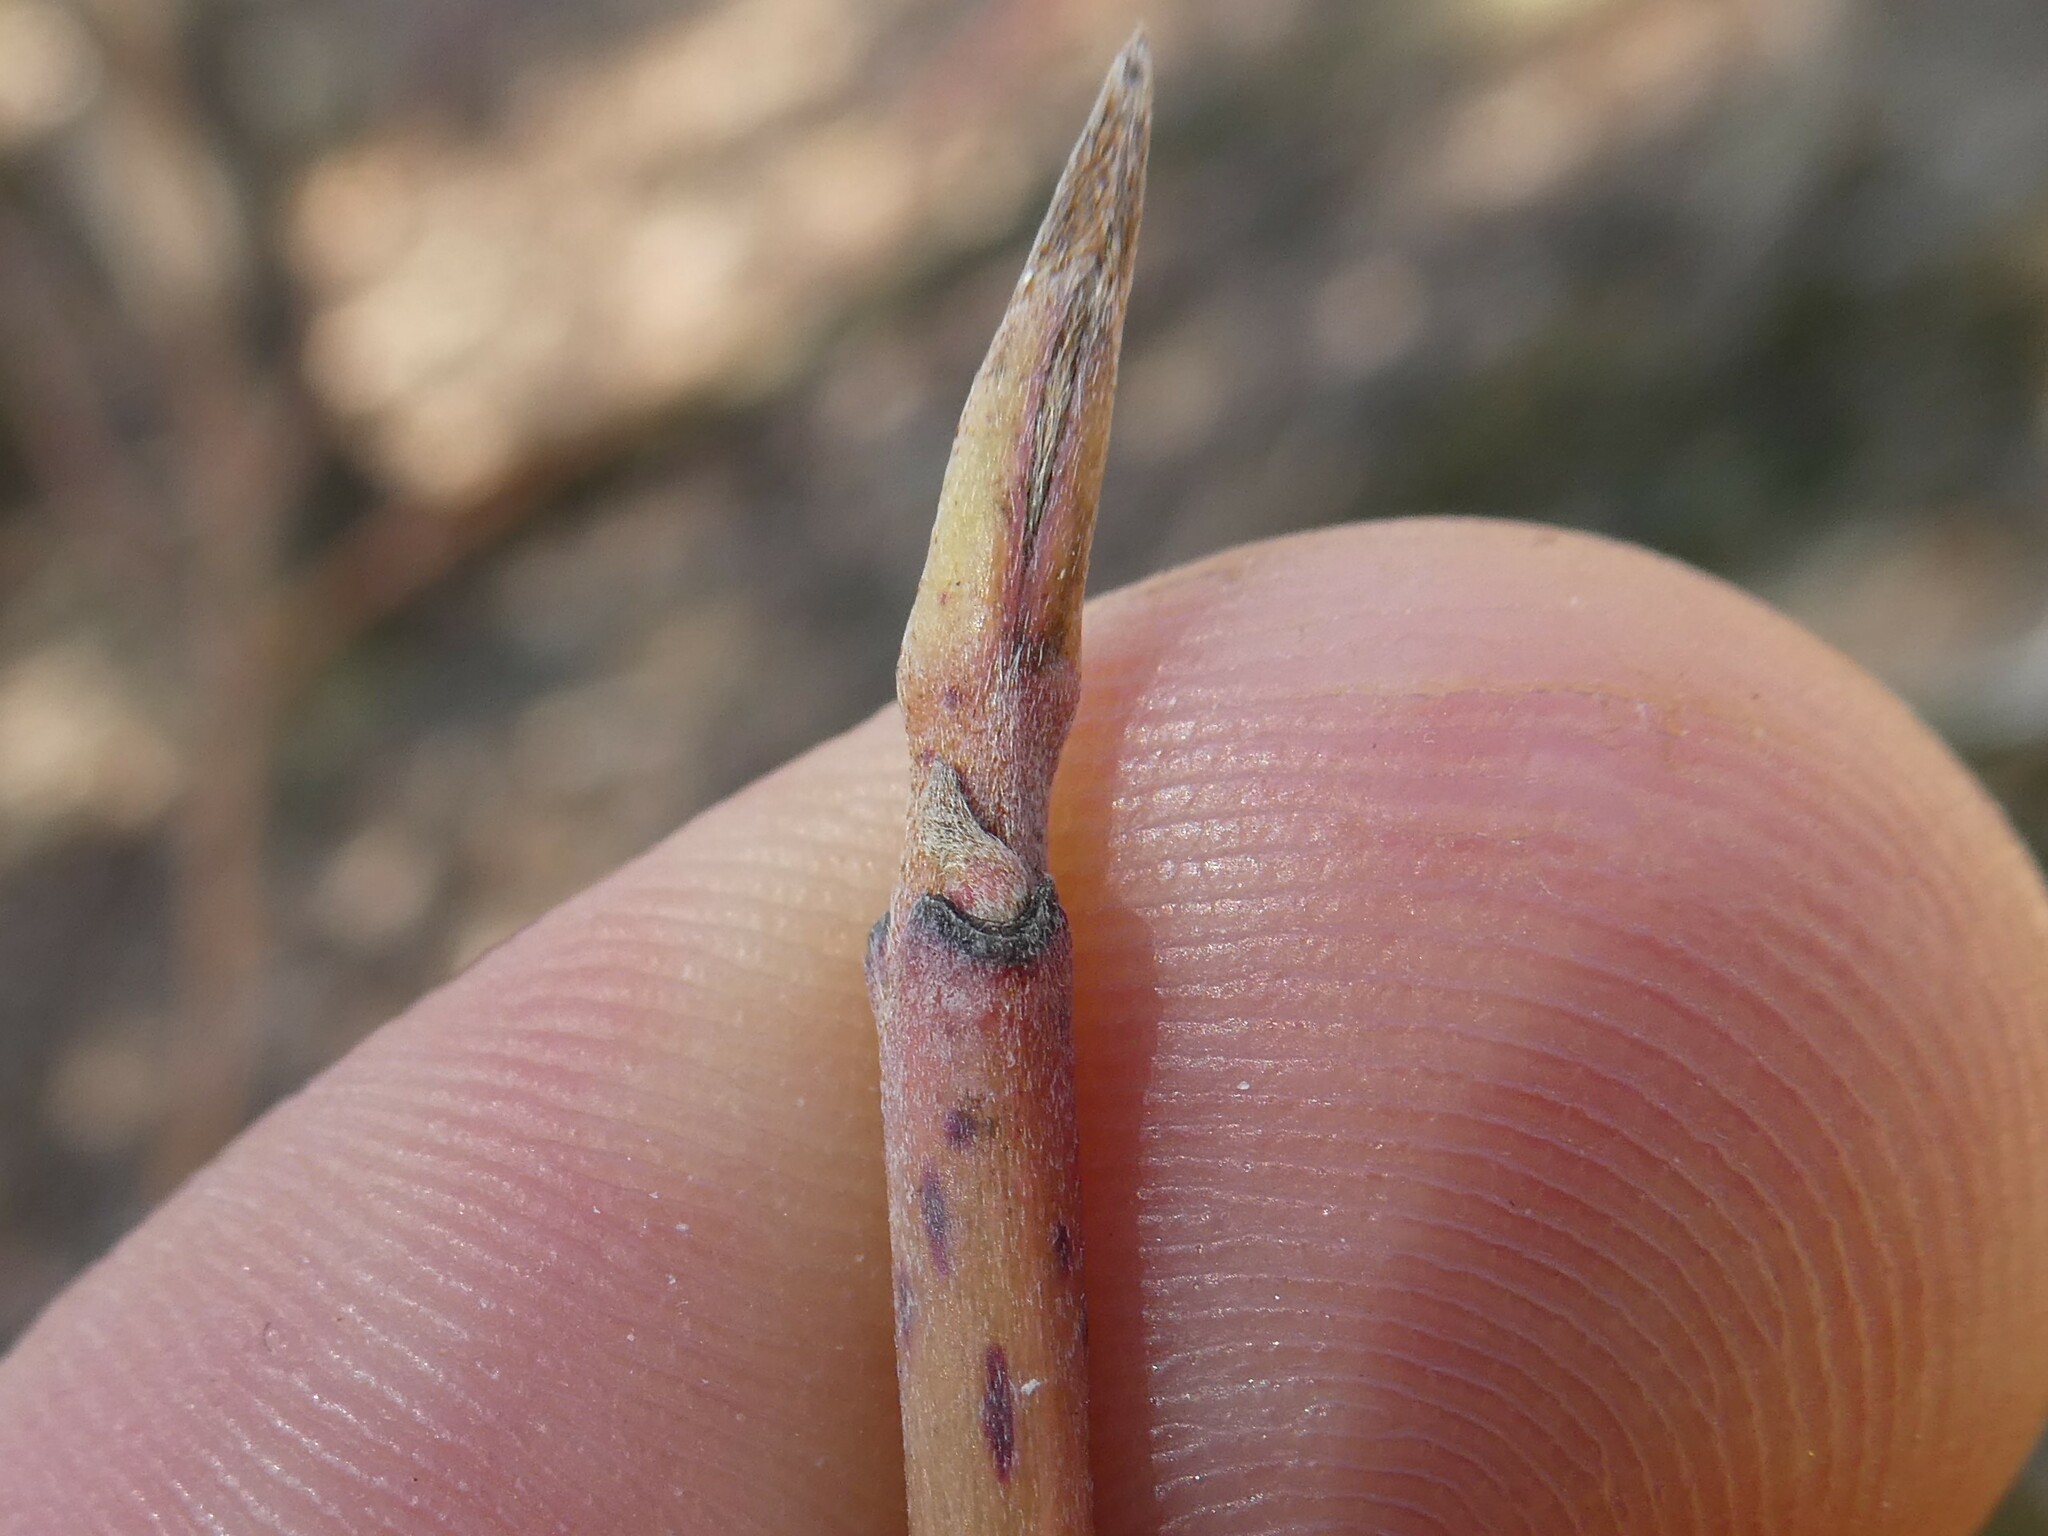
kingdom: Plantae
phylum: Tracheophyta
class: Magnoliopsida
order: Cornales
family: Cornaceae
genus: Cornus
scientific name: Cornus rugosa
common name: Round-leaf dogwood
